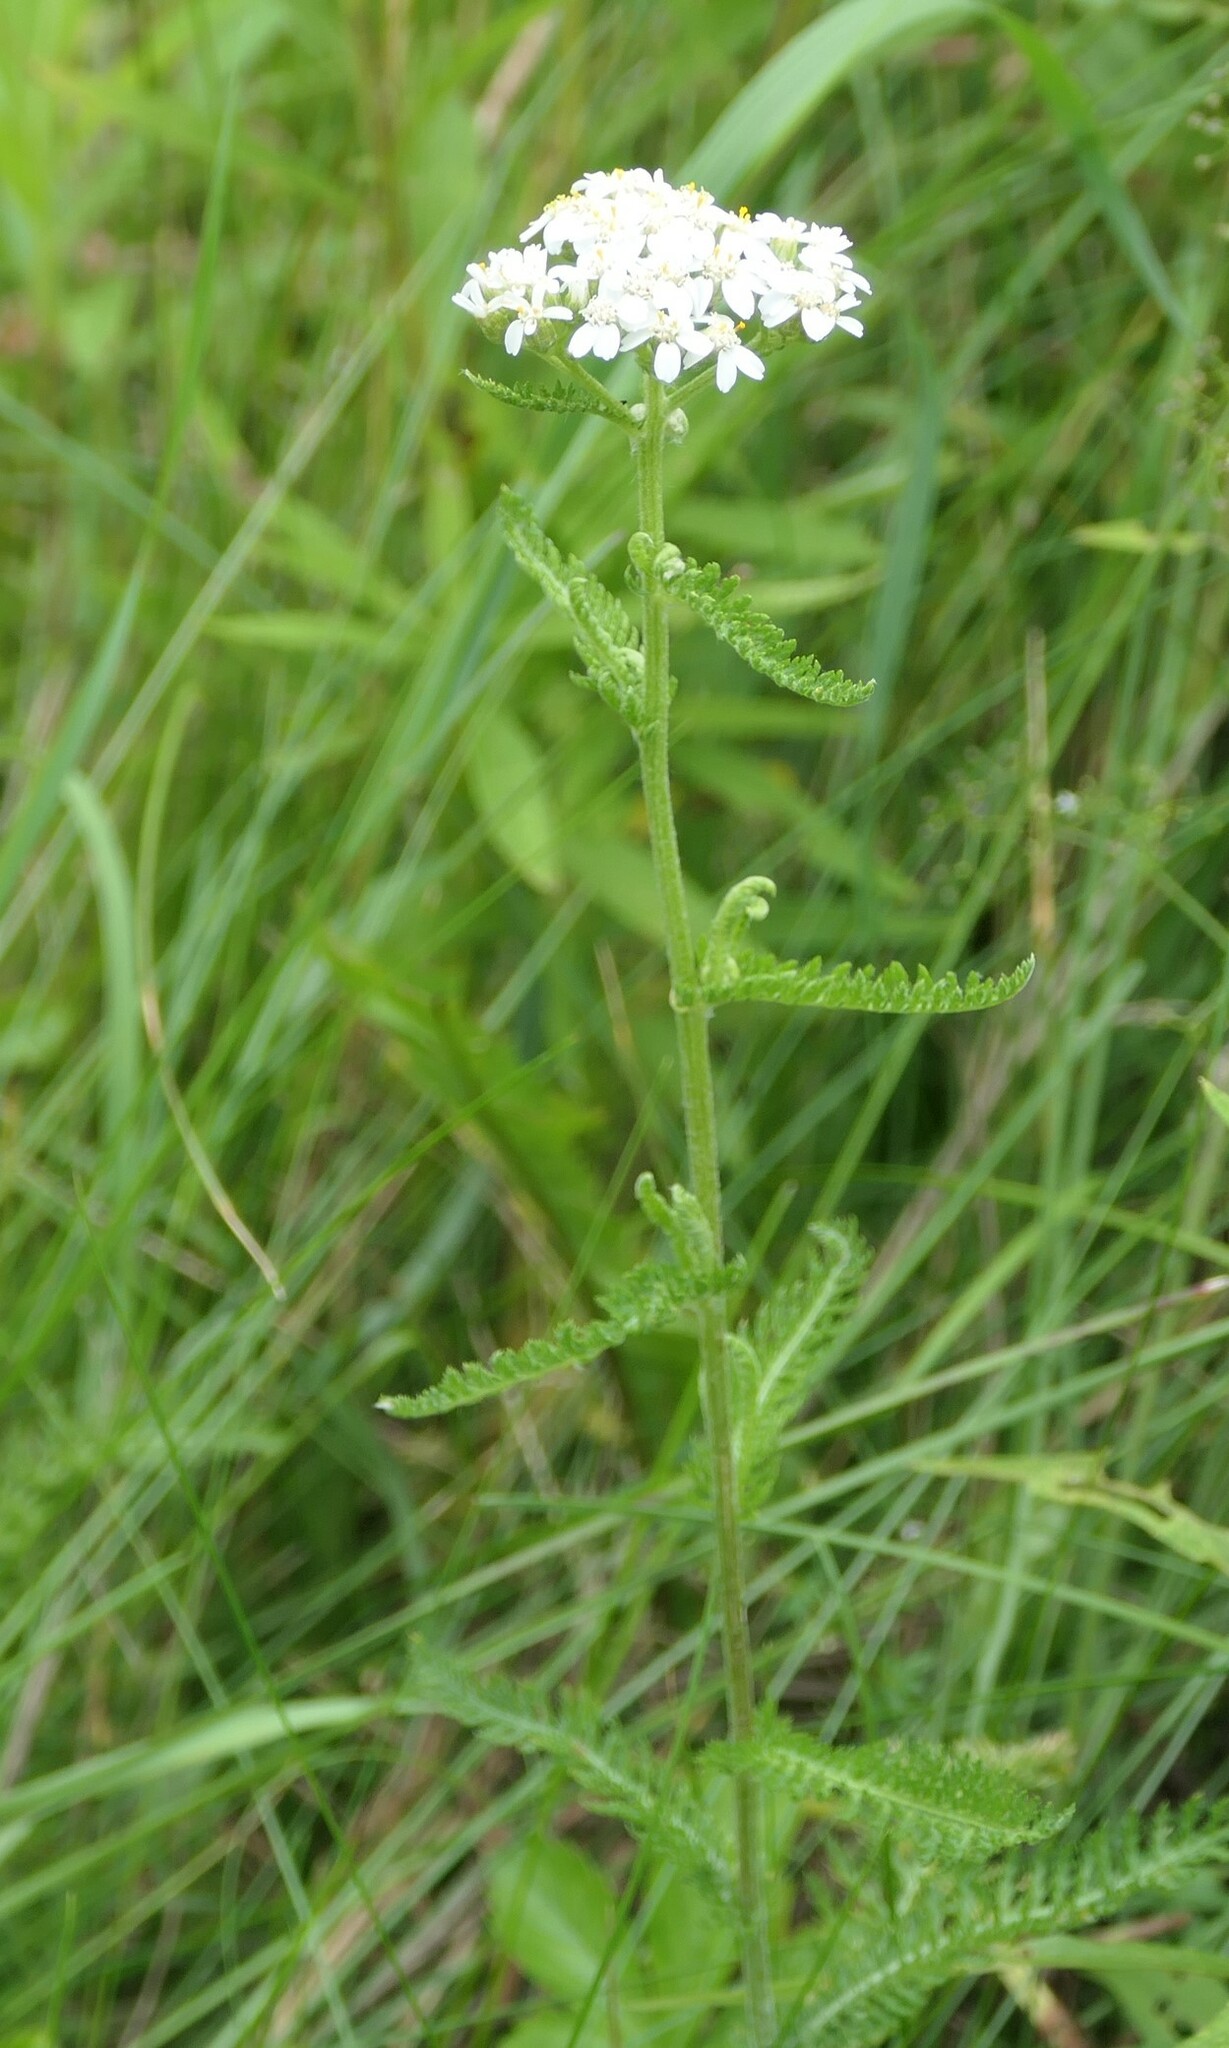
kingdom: Plantae
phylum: Tracheophyta
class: Magnoliopsida
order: Asterales
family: Asteraceae
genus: Achillea
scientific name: Achillea millefolium
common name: Yarrow
